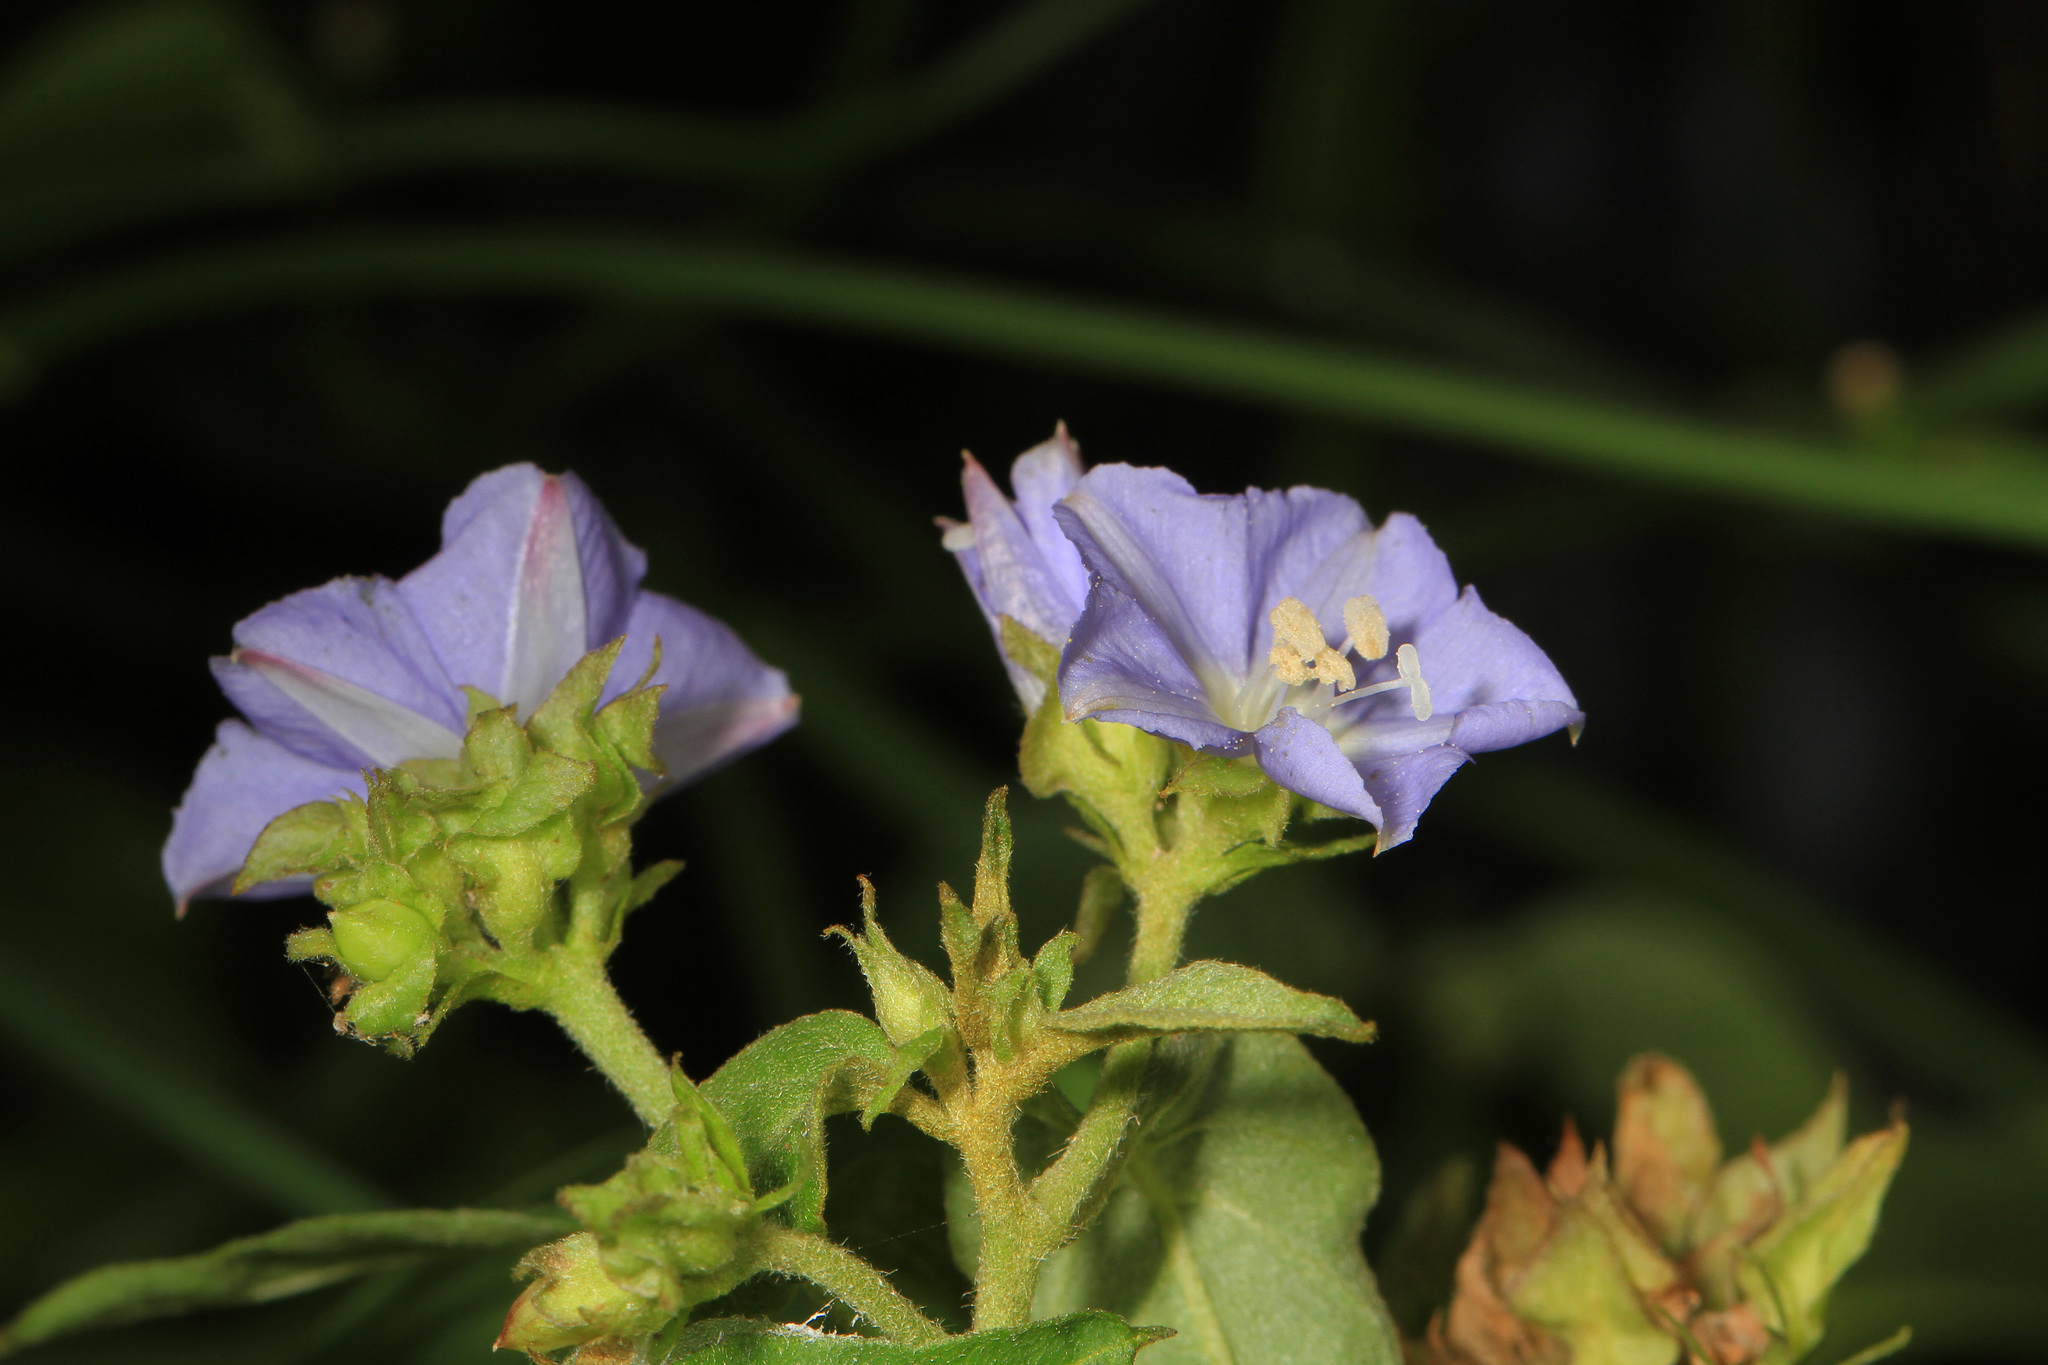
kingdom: Plantae
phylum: Tracheophyta
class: Magnoliopsida
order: Solanales
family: Convolvulaceae
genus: Jacquemontia
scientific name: Jacquemontia pentanthos
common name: Skyblue clustervine
